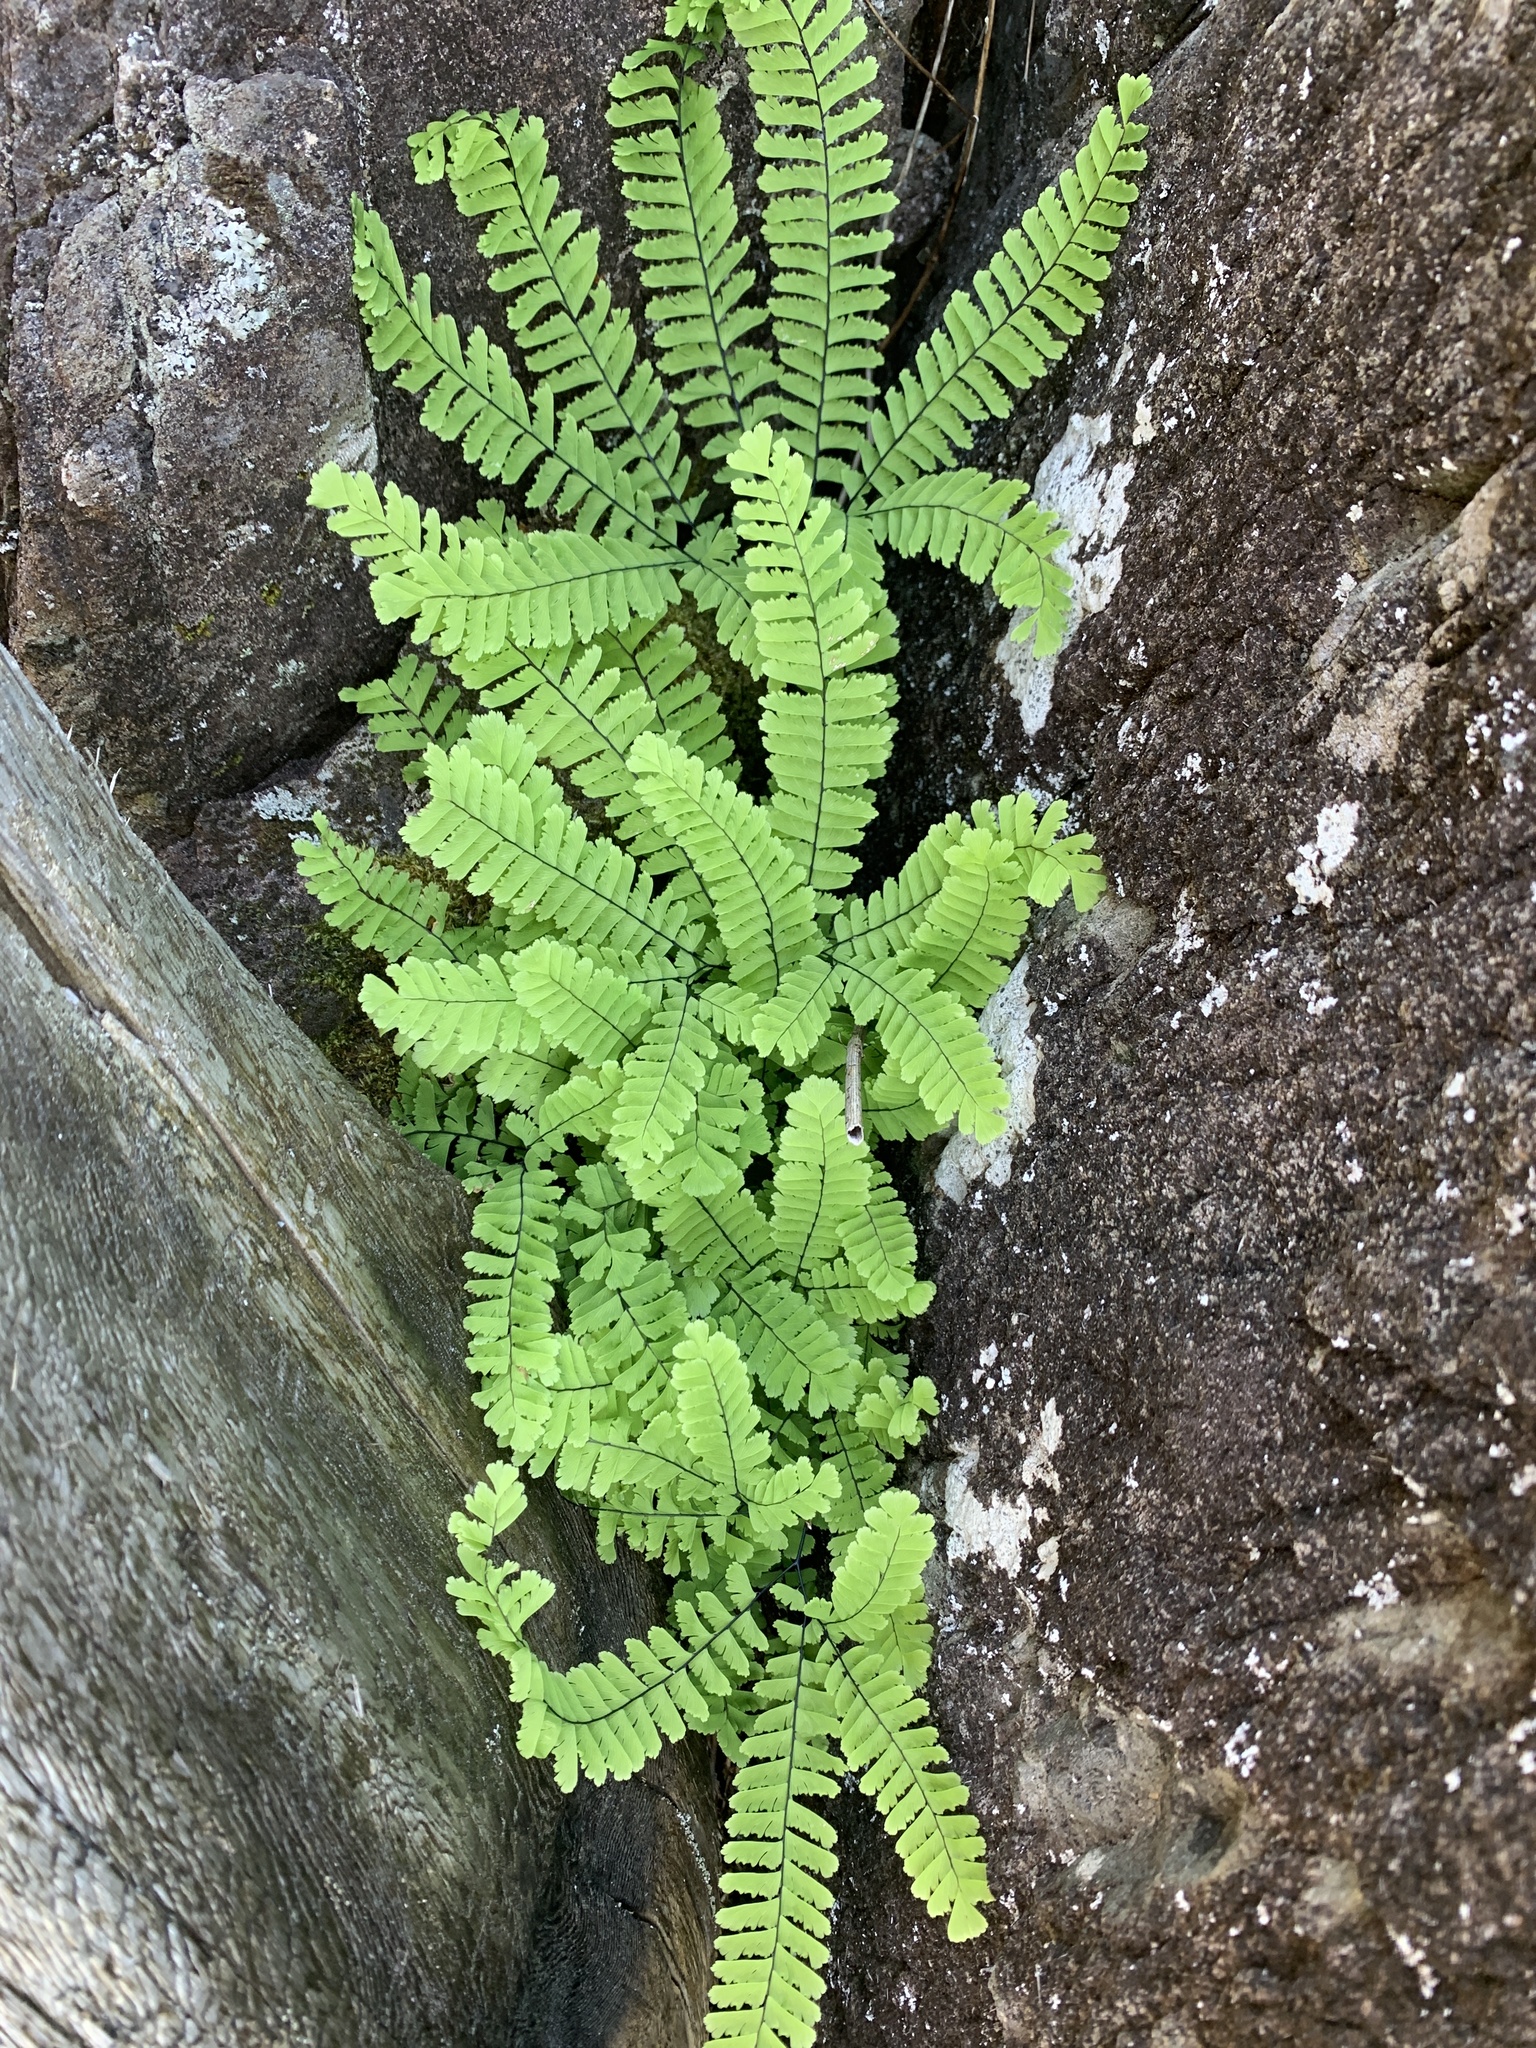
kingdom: Plantae
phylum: Tracheophyta
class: Polypodiopsida
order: Polypodiales
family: Pteridaceae
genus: Adiantum
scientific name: Adiantum aleuticum
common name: Aleutian maidenhair fern
